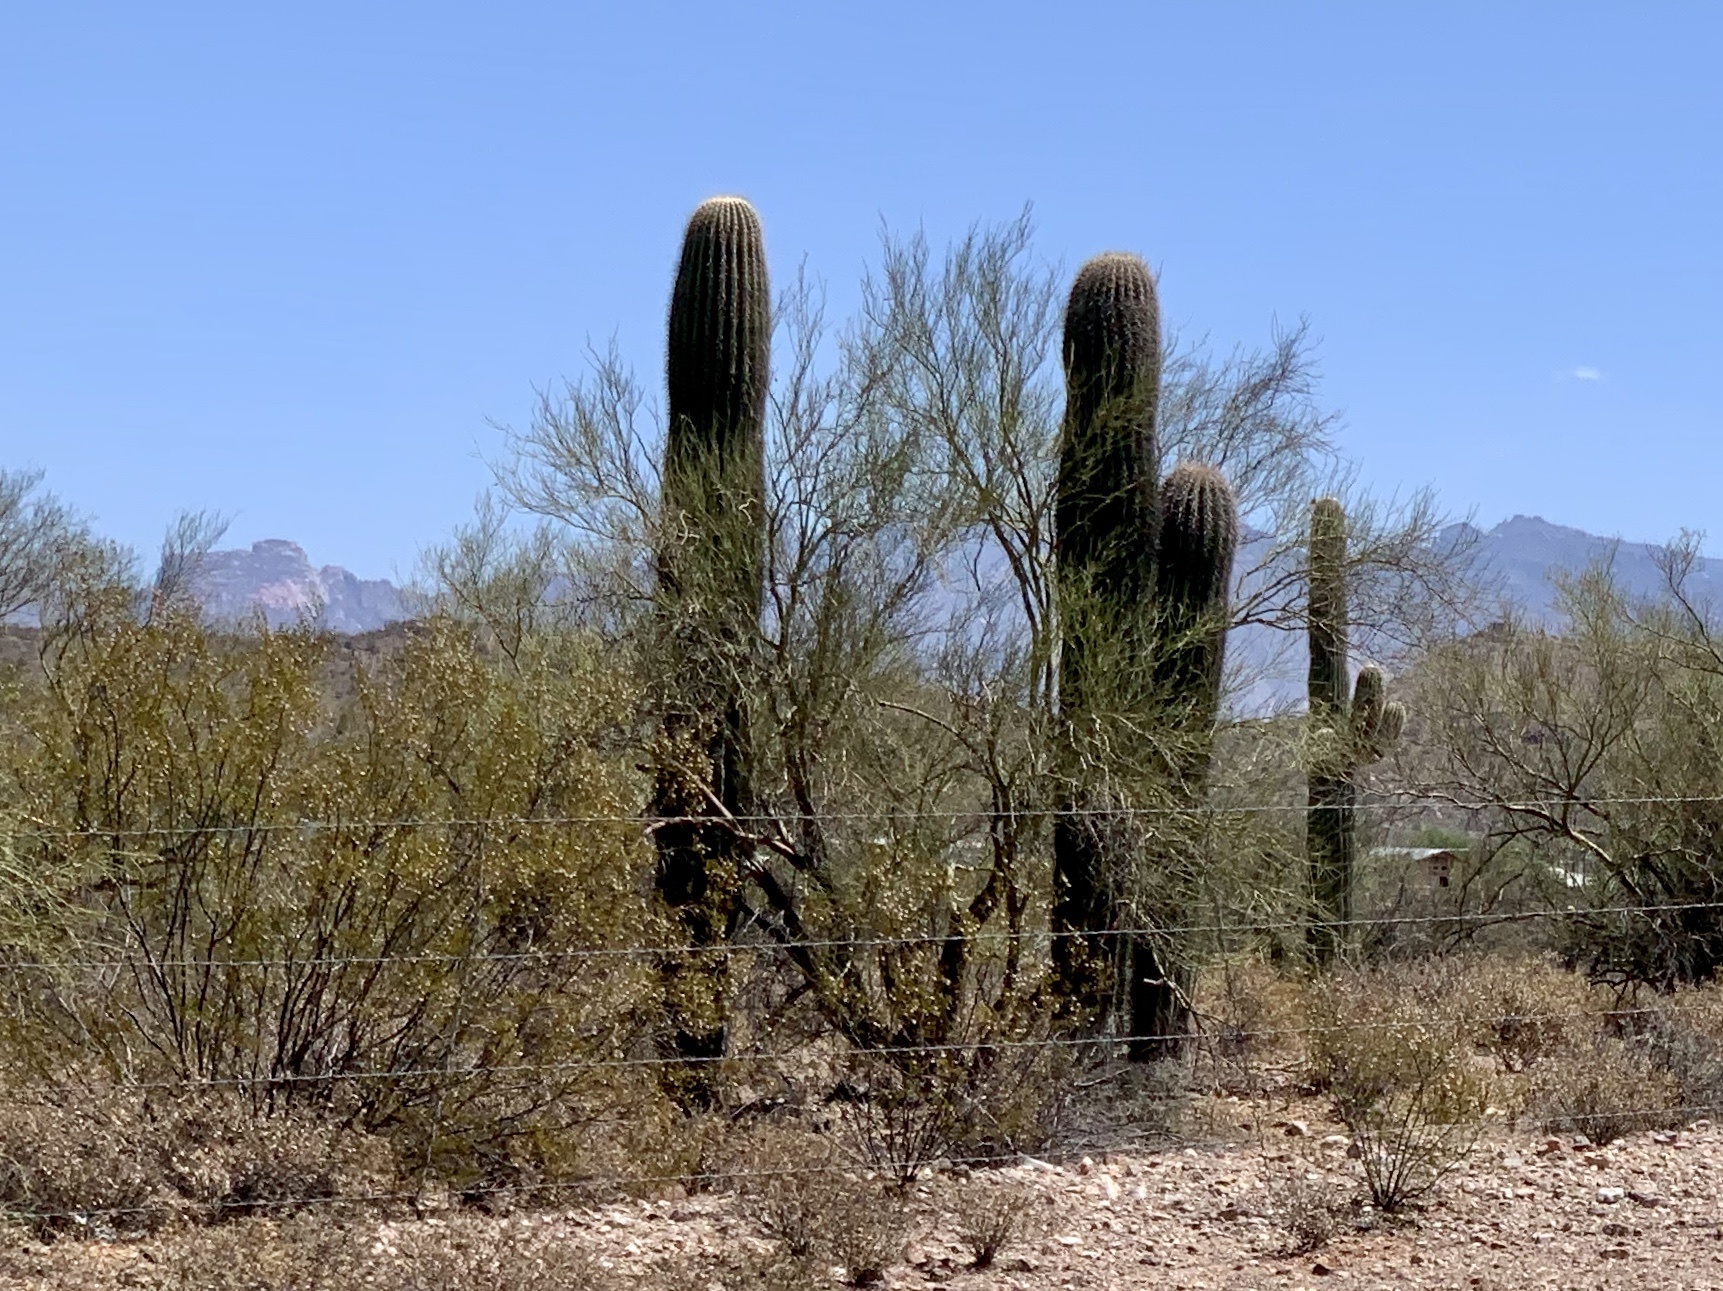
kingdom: Plantae
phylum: Tracheophyta
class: Magnoliopsida
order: Caryophyllales
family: Cactaceae
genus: Carnegiea
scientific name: Carnegiea gigantea
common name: Saguaro
